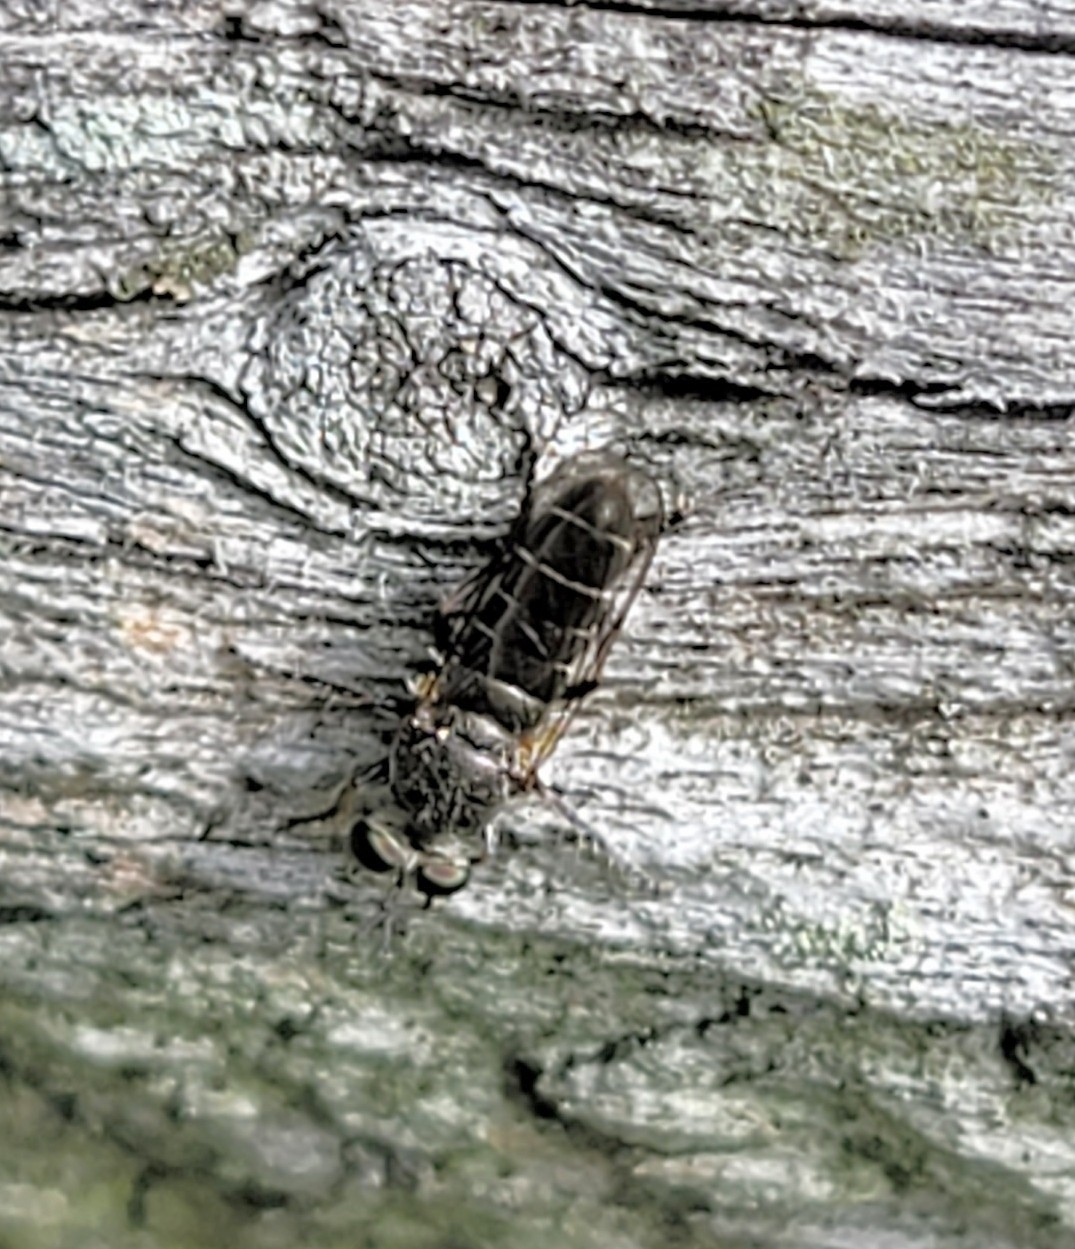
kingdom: Animalia
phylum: Arthropoda
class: Insecta
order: Diptera
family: Asilidae
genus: Atomosia
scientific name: Atomosia puella
